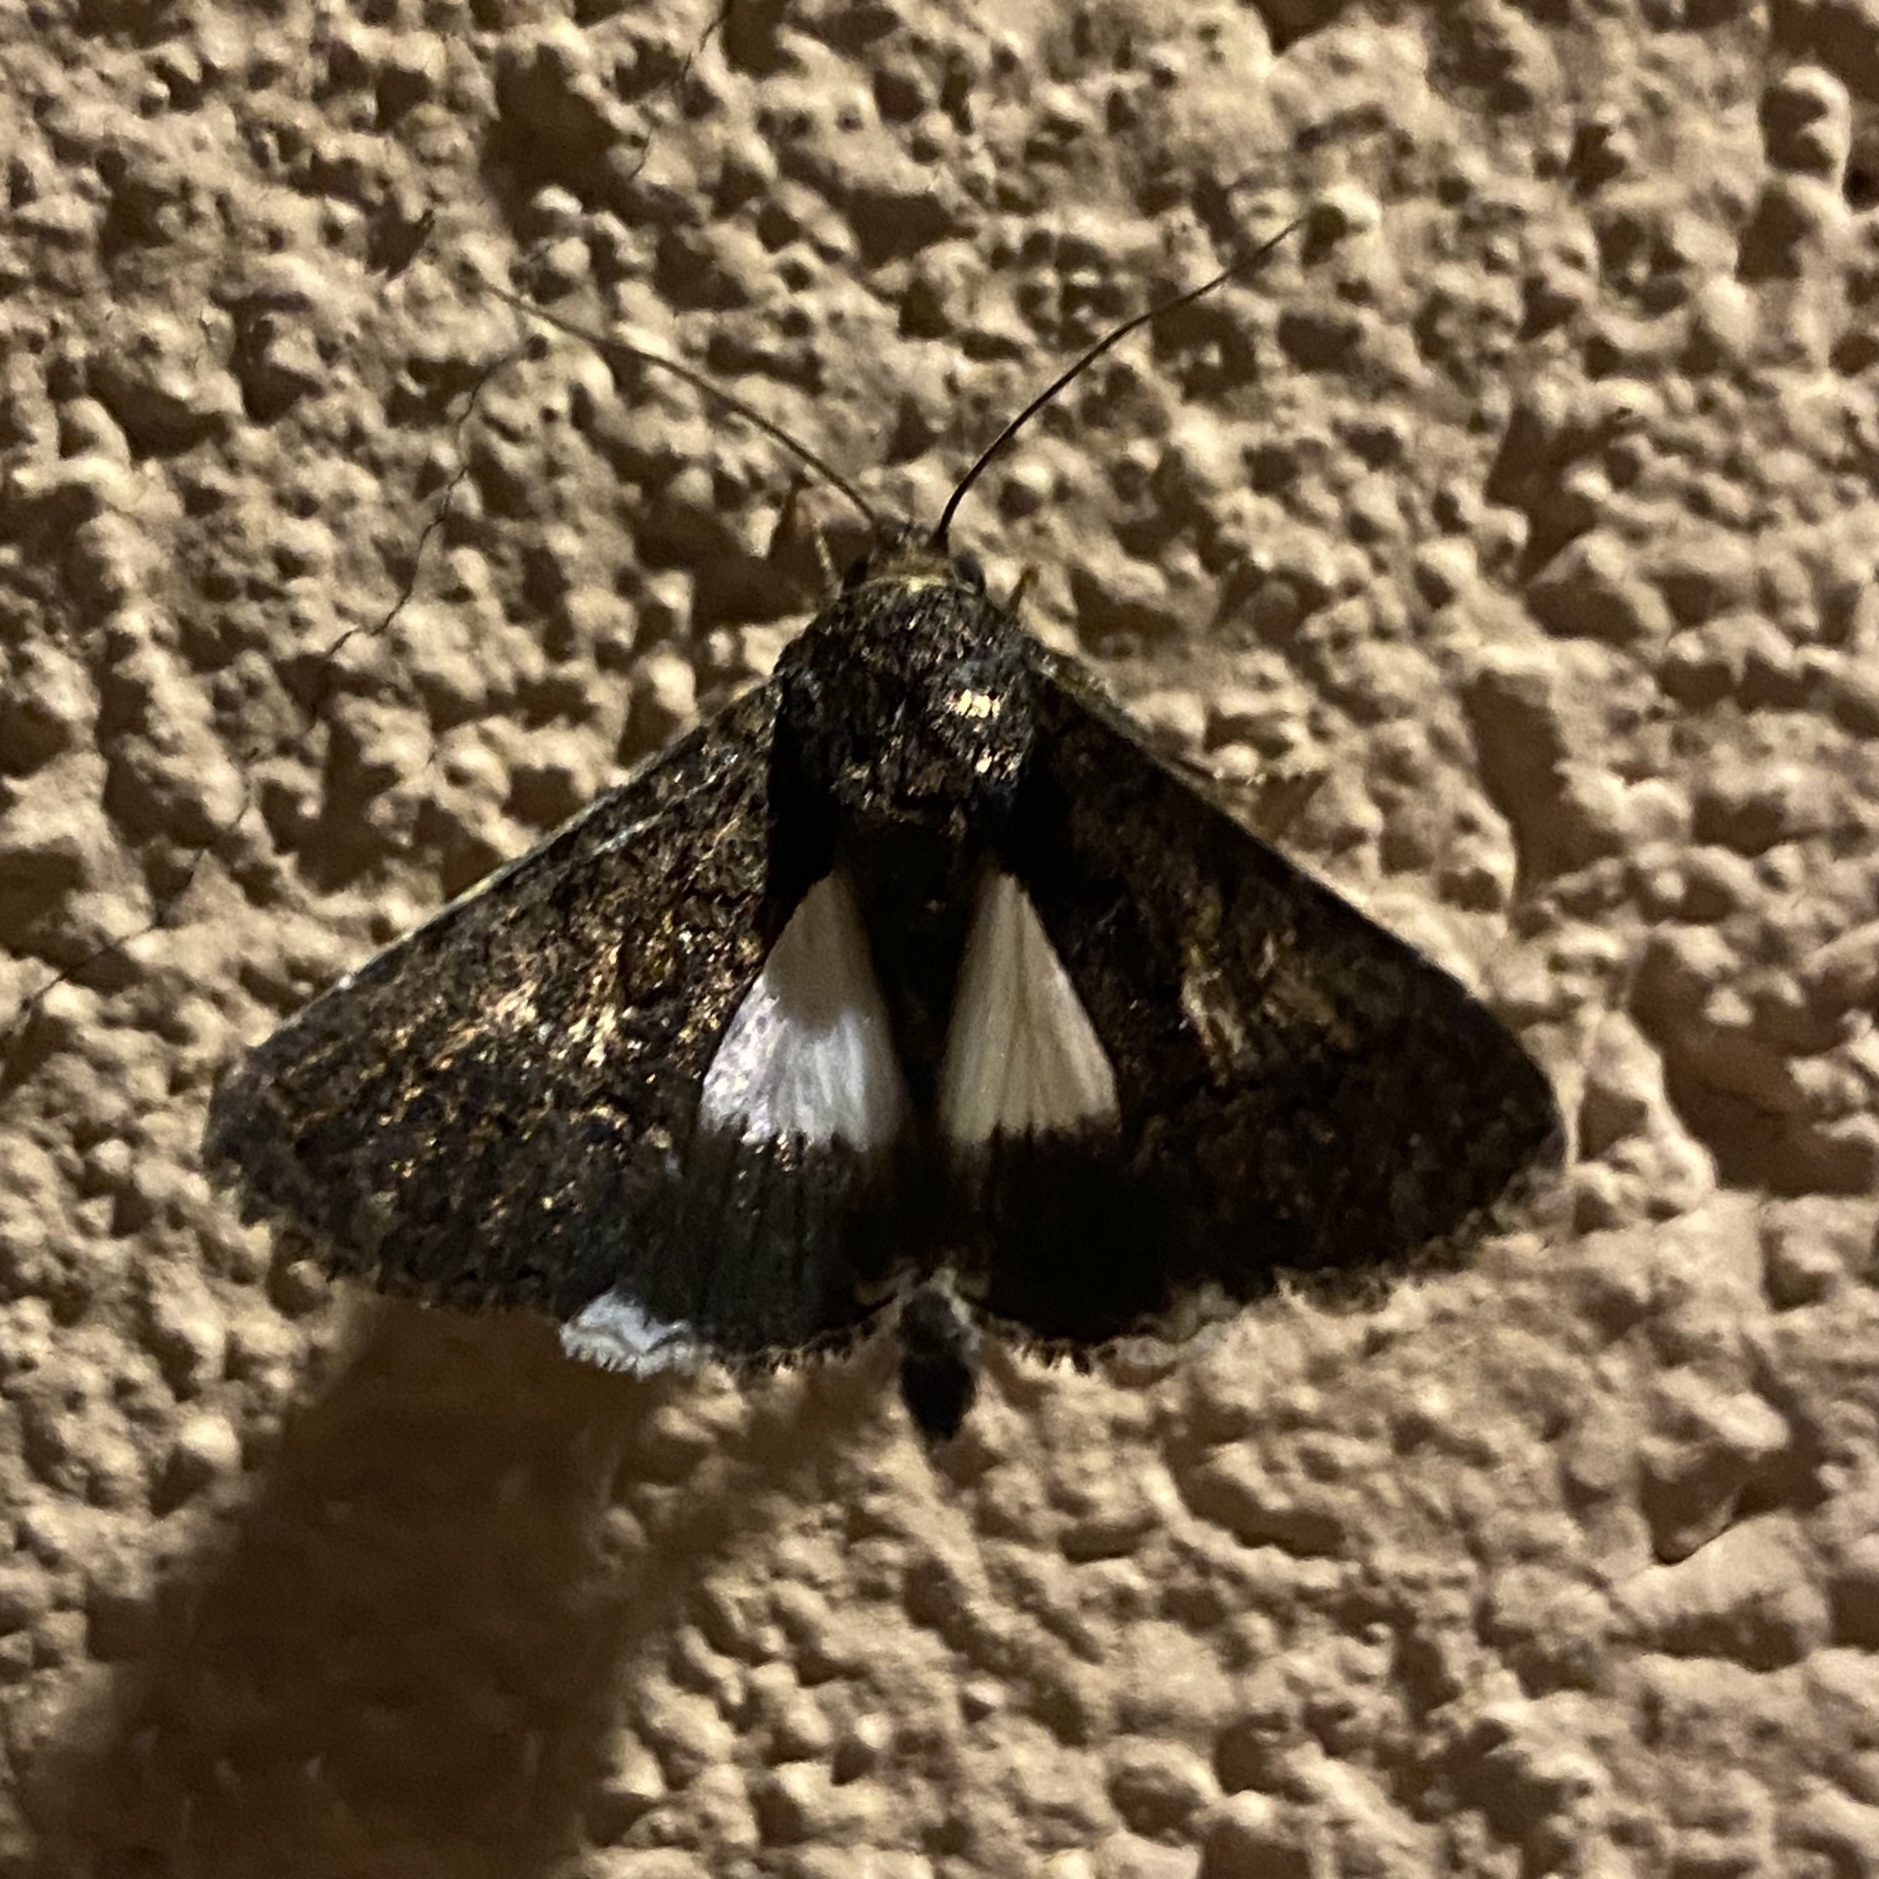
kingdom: Animalia
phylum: Arthropoda
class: Insecta
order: Lepidoptera
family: Noctuidae
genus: Aedia
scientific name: Aedia leucomelas
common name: Sorcerer
